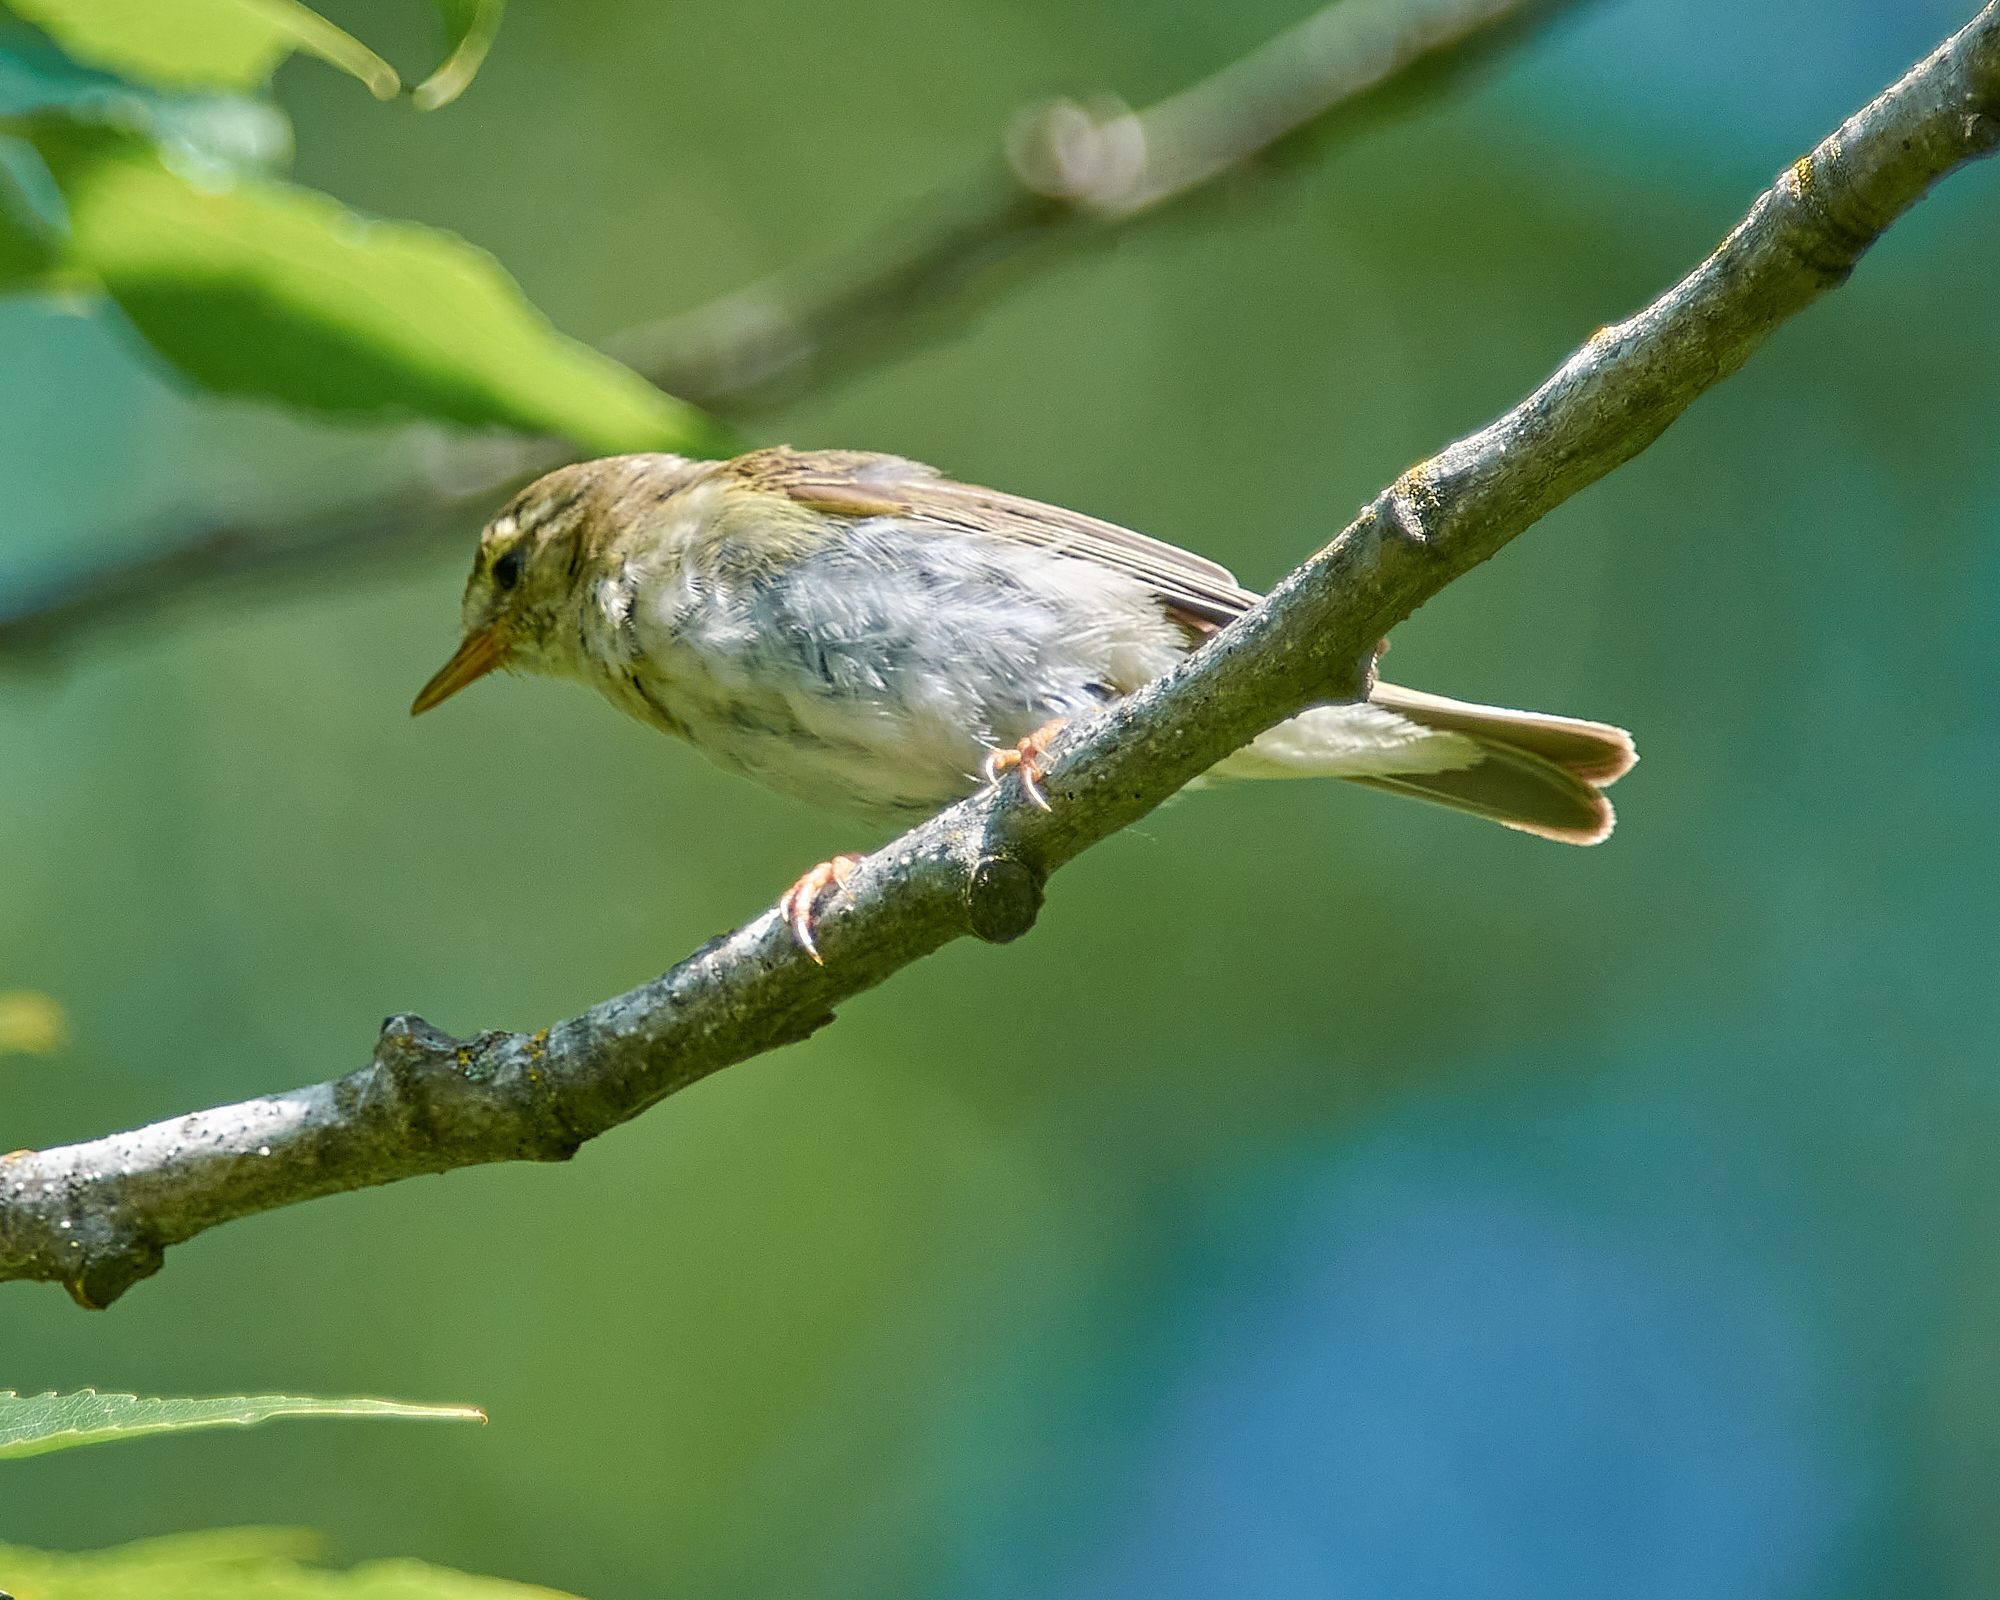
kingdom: Animalia
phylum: Chordata
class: Aves
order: Passeriformes
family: Phylloscopidae
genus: Phylloscopus
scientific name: Phylloscopus trochilus
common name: Willow warbler
